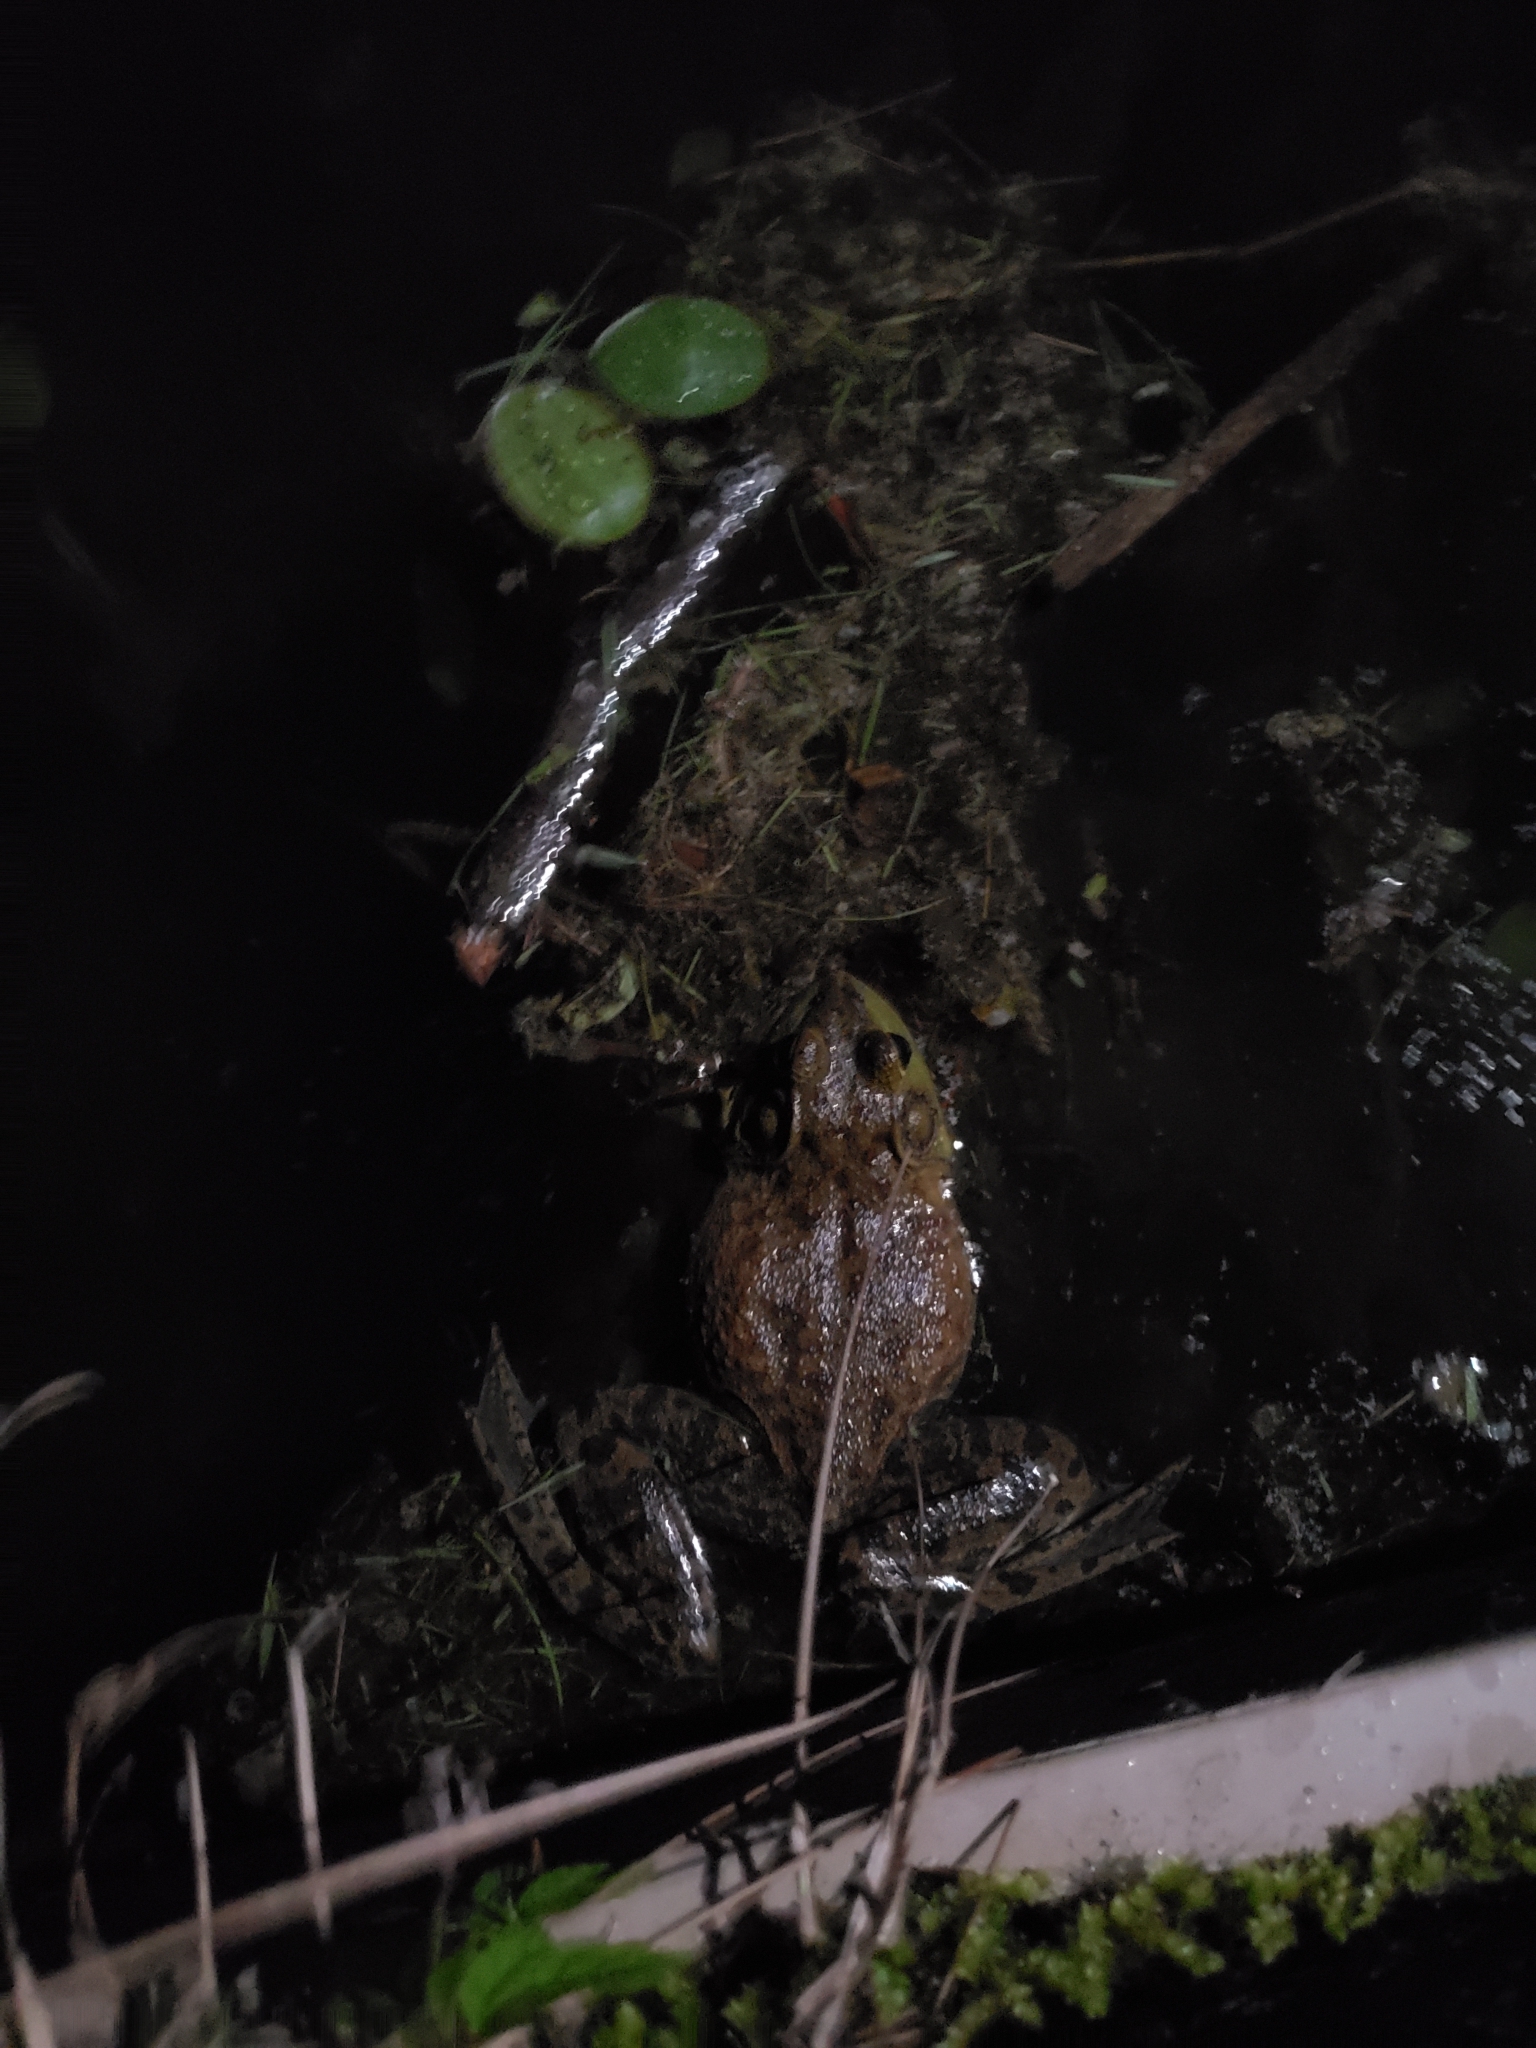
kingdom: Animalia
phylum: Chordata
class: Amphibia
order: Anura
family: Ranidae
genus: Lithobates
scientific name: Lithobates catesbeianus
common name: American bullfrog
